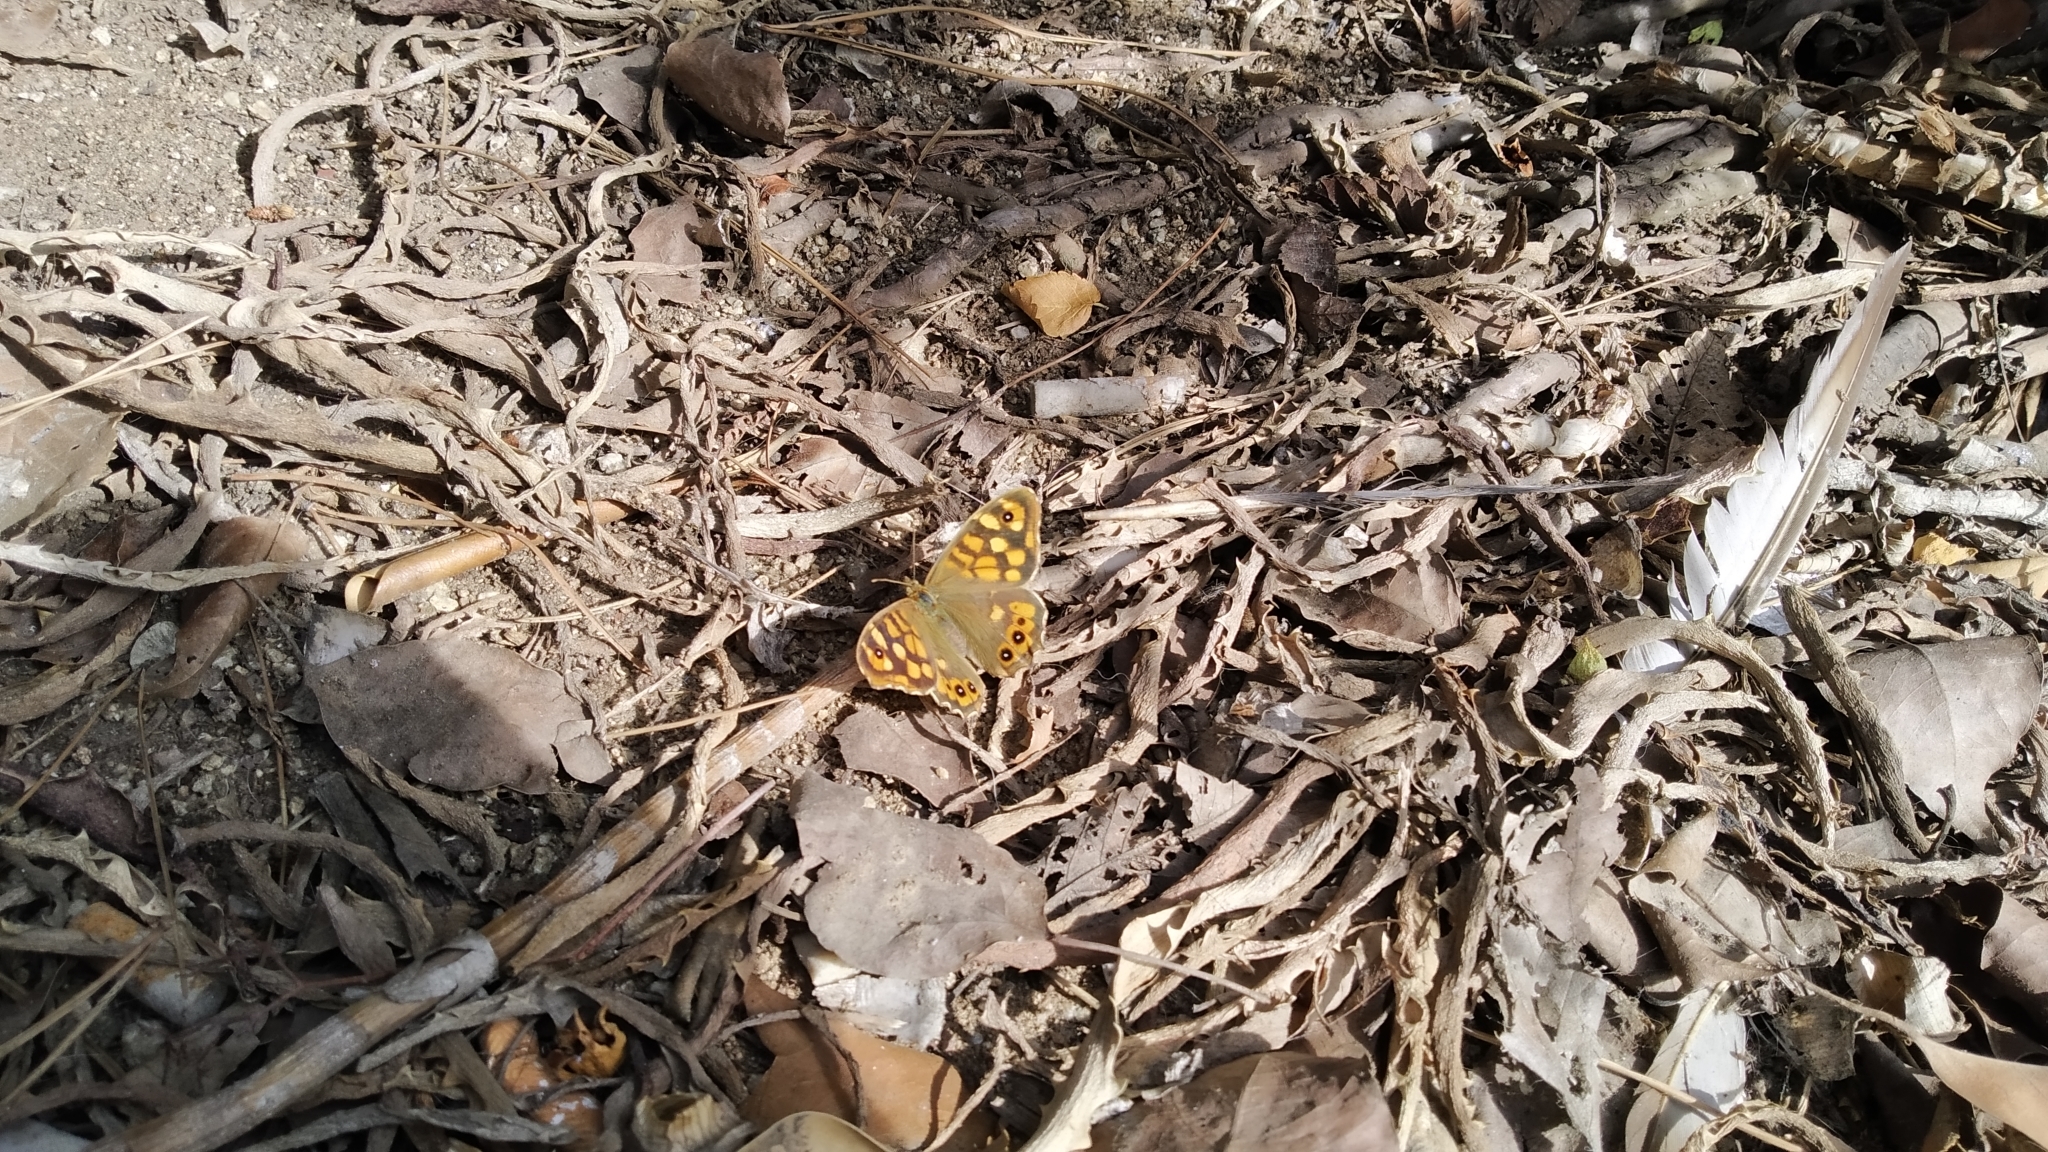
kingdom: Animalia
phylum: Arthropoda
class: Insecta
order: Lepidoptera
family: Nymphalidae
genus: Pararge
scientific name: Pararge aegeria
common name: Speckled wood
